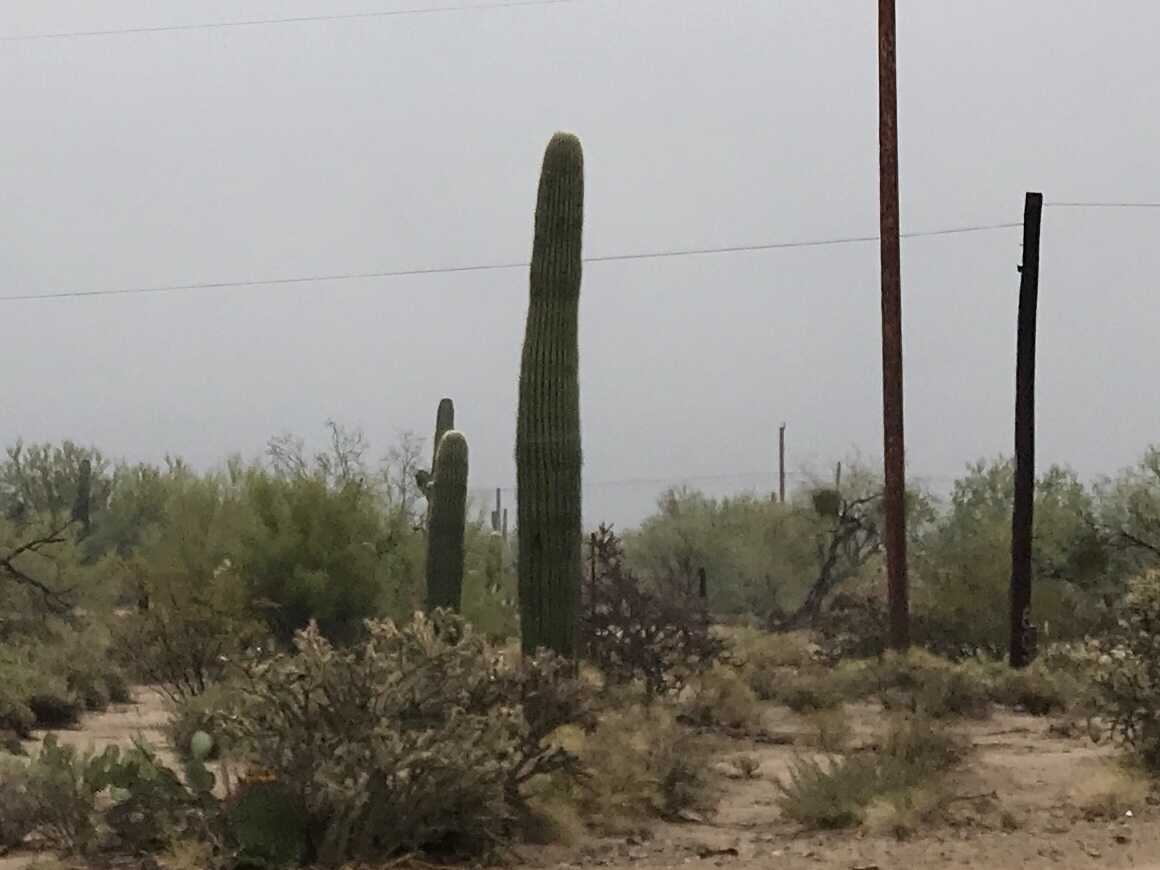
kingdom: Plantae
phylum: Tracheophyta
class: Magnoliopsida
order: Caryophyllales
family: Cactaceae
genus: Carnegiea
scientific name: Carnegiea gigantea
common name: Saguaro
